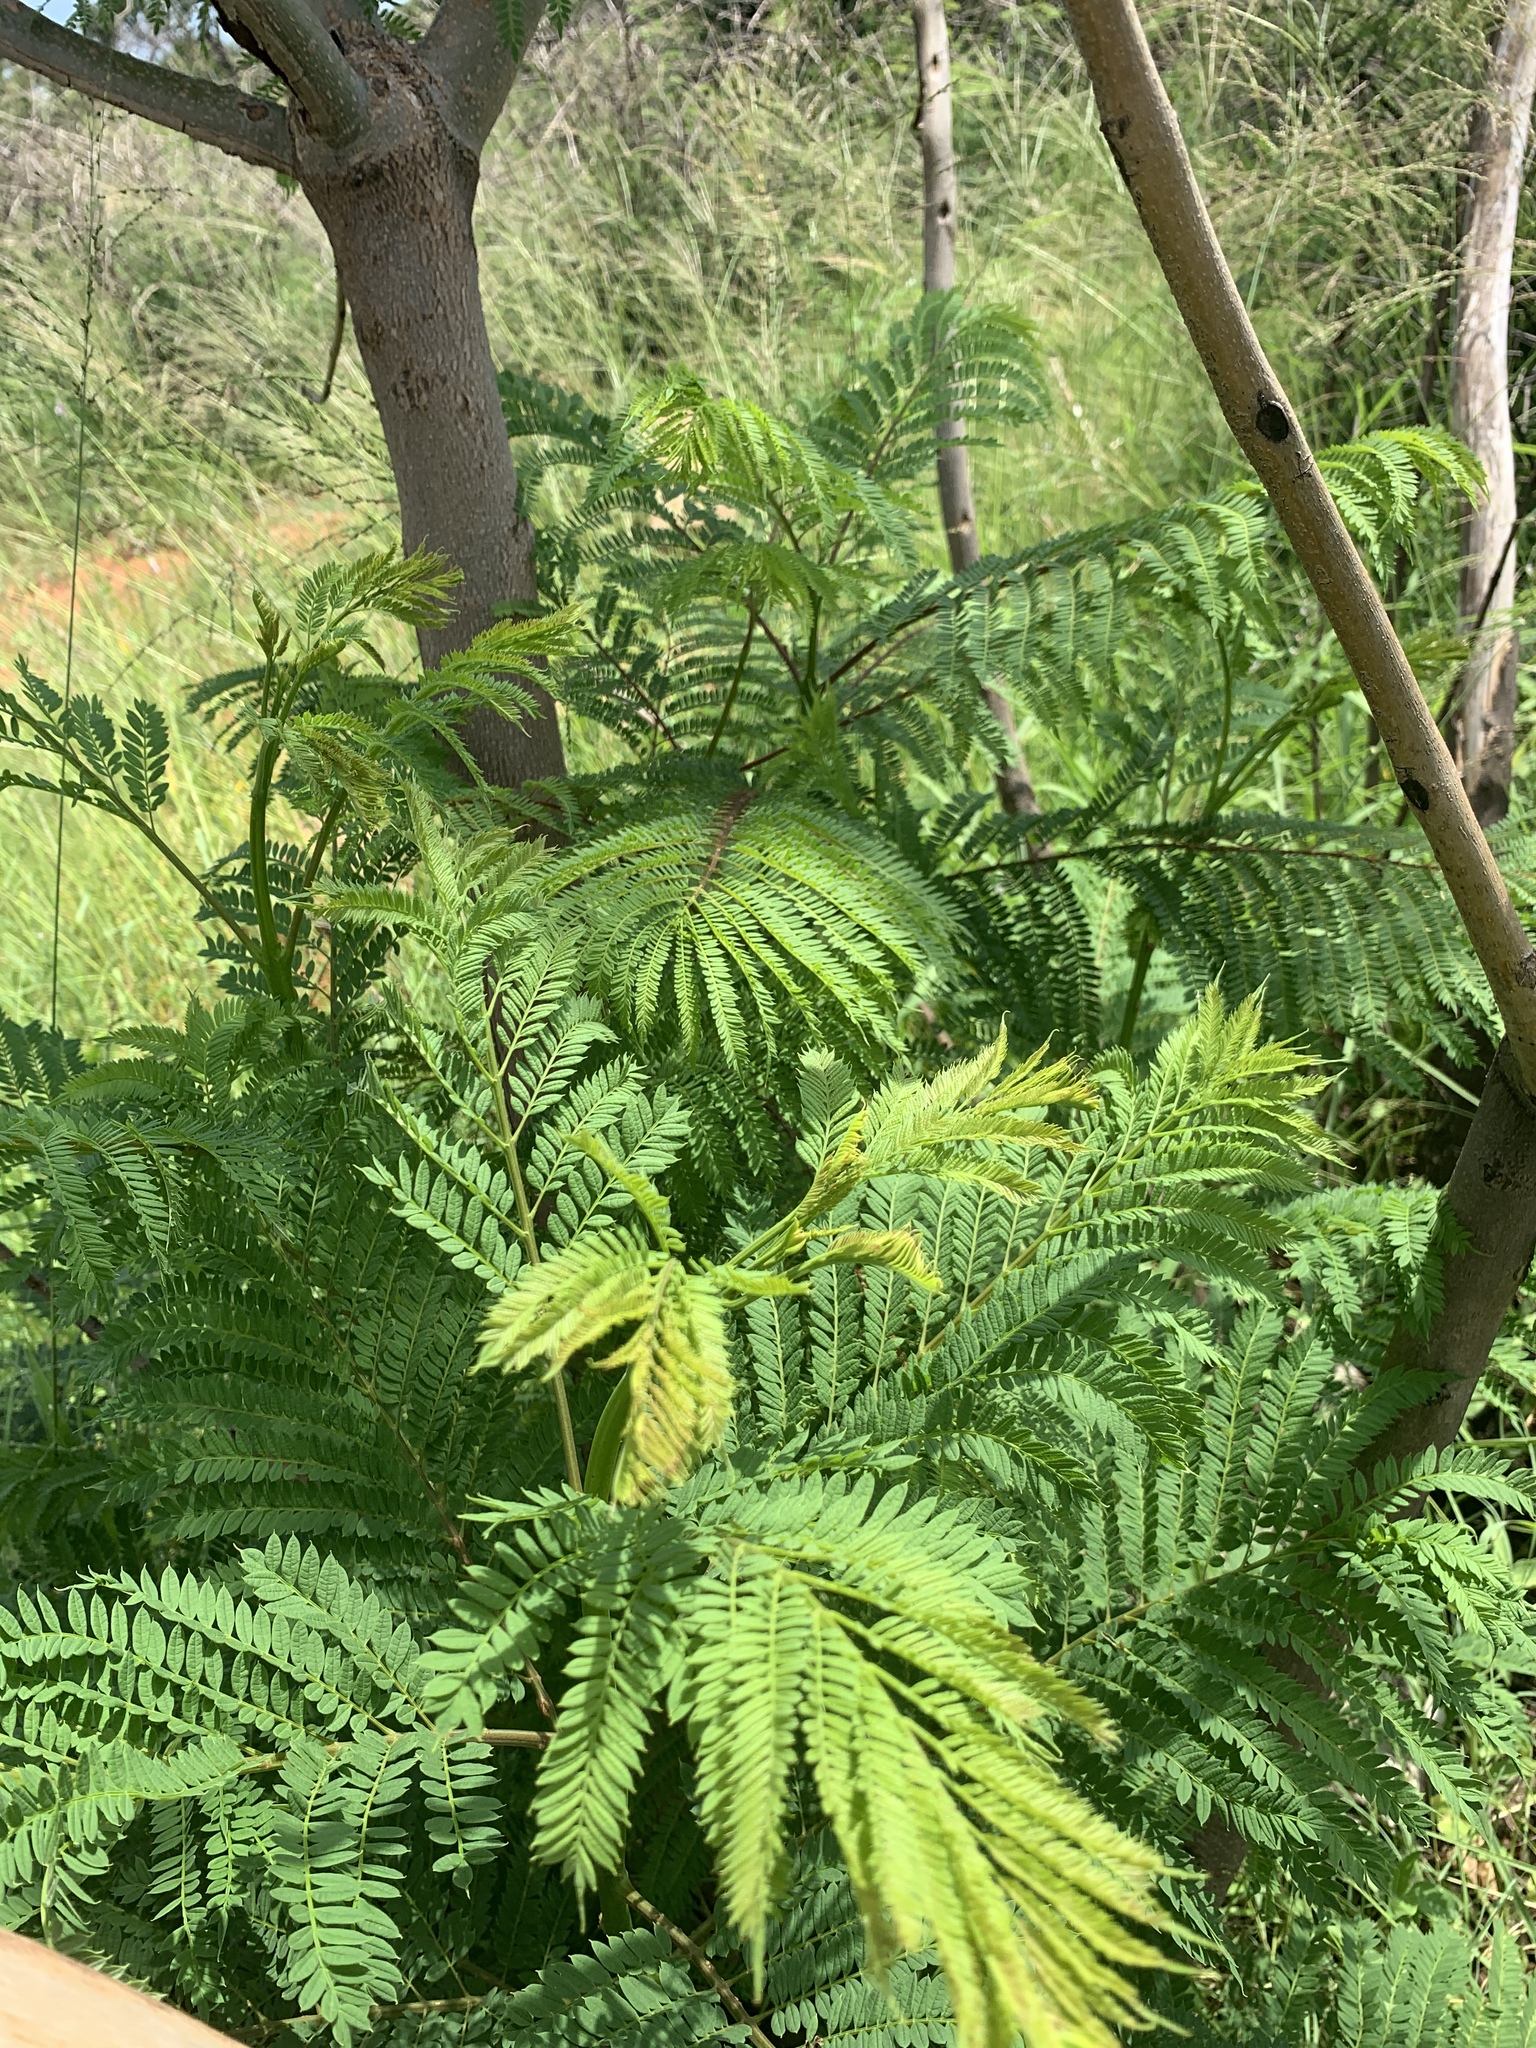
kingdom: Plantae
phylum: Tracheophyta
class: Magnoliopsida
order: Lamiales
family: Bignoniaceae
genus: Jacaranda
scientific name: Jacaranda mimosifolia
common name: Black poui
